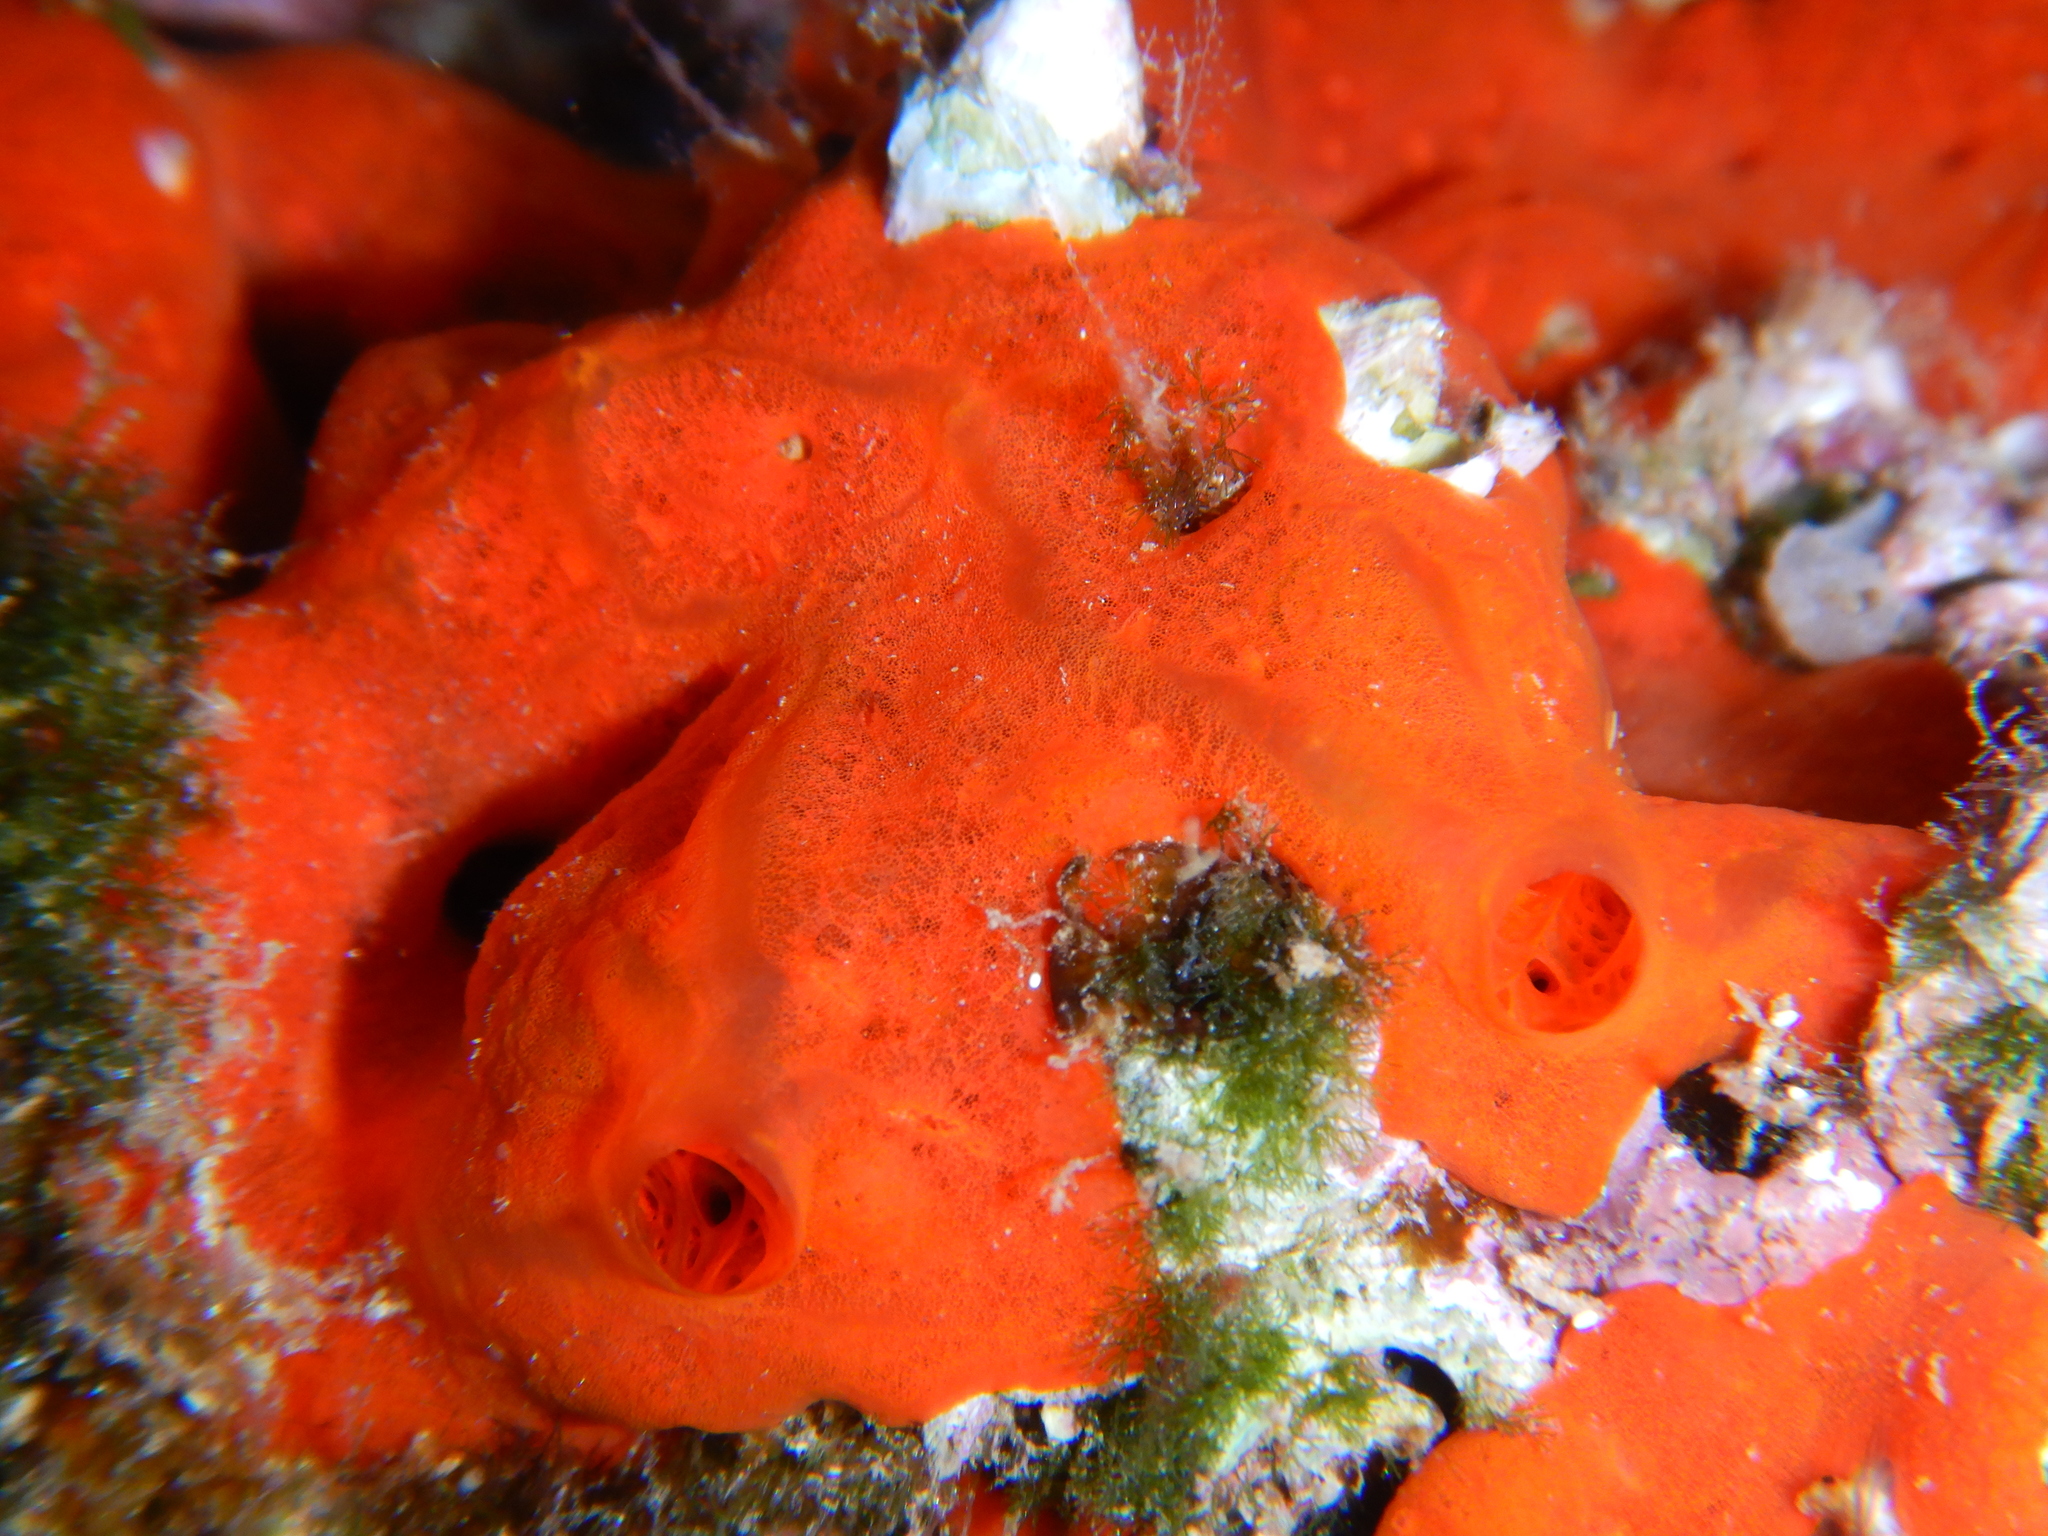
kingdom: Animalia
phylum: Porifera
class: Demospongiae
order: Poecilosclerida
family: Crambeidae
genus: Crambe
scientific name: Crambe crambe
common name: Orange-red encrusting sponge
